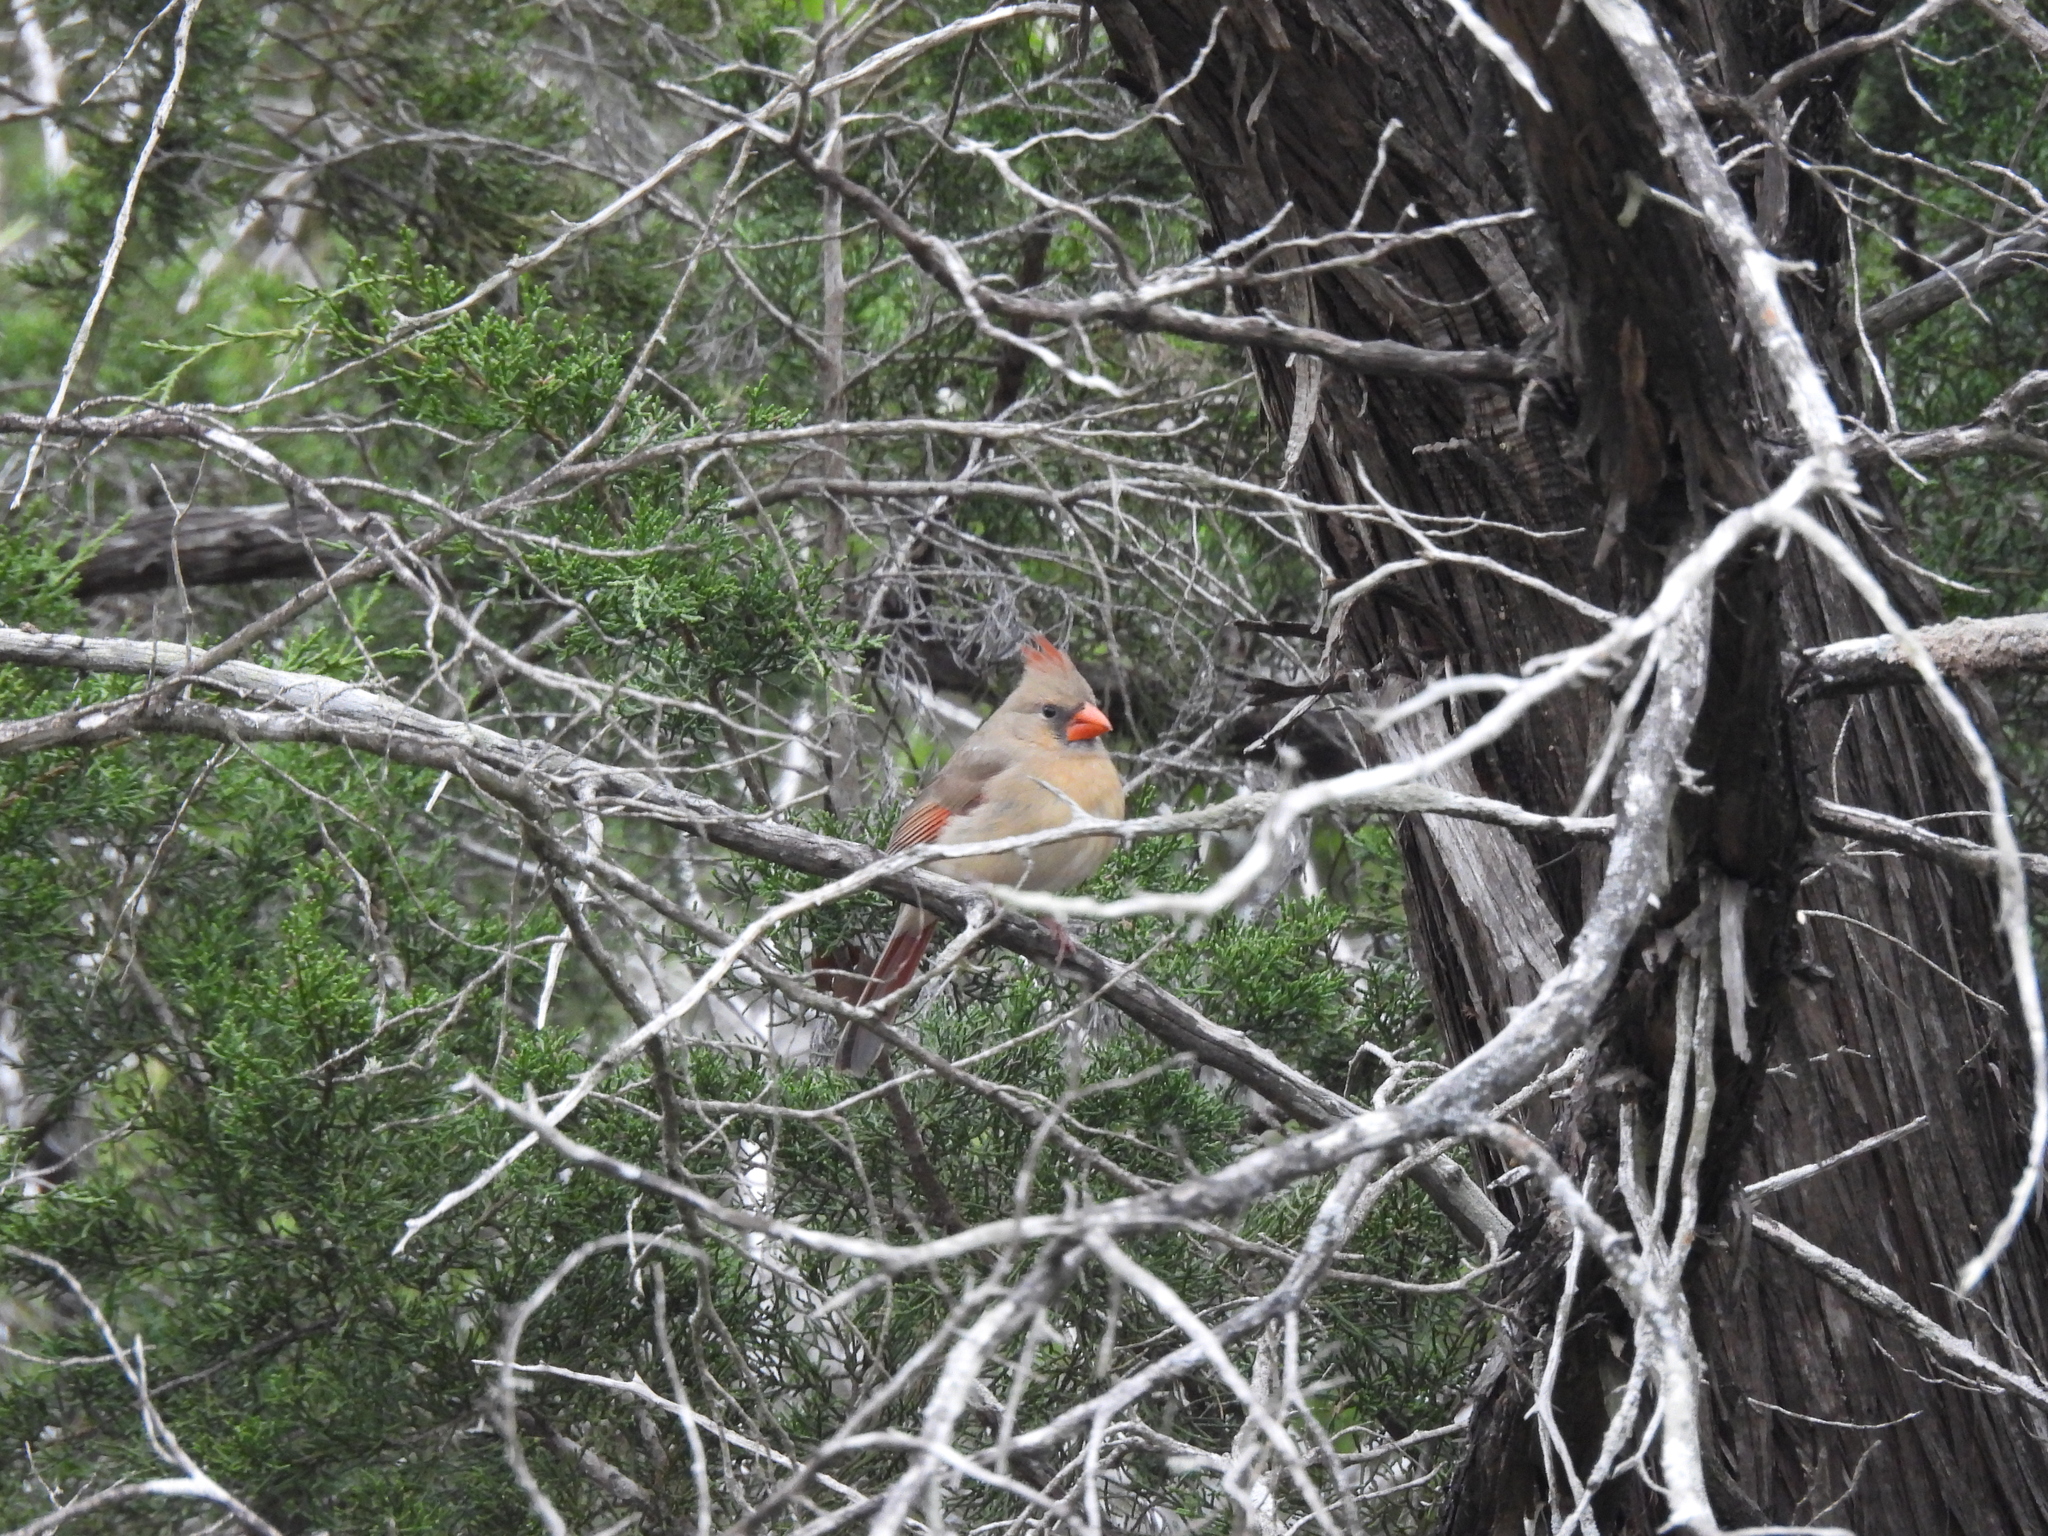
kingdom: Animalia
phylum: Chordata
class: Aves
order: Passeriformes
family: Cardinalidae
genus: Cardinalis
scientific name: Cardinalis cardinalis
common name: Northern cardinal
